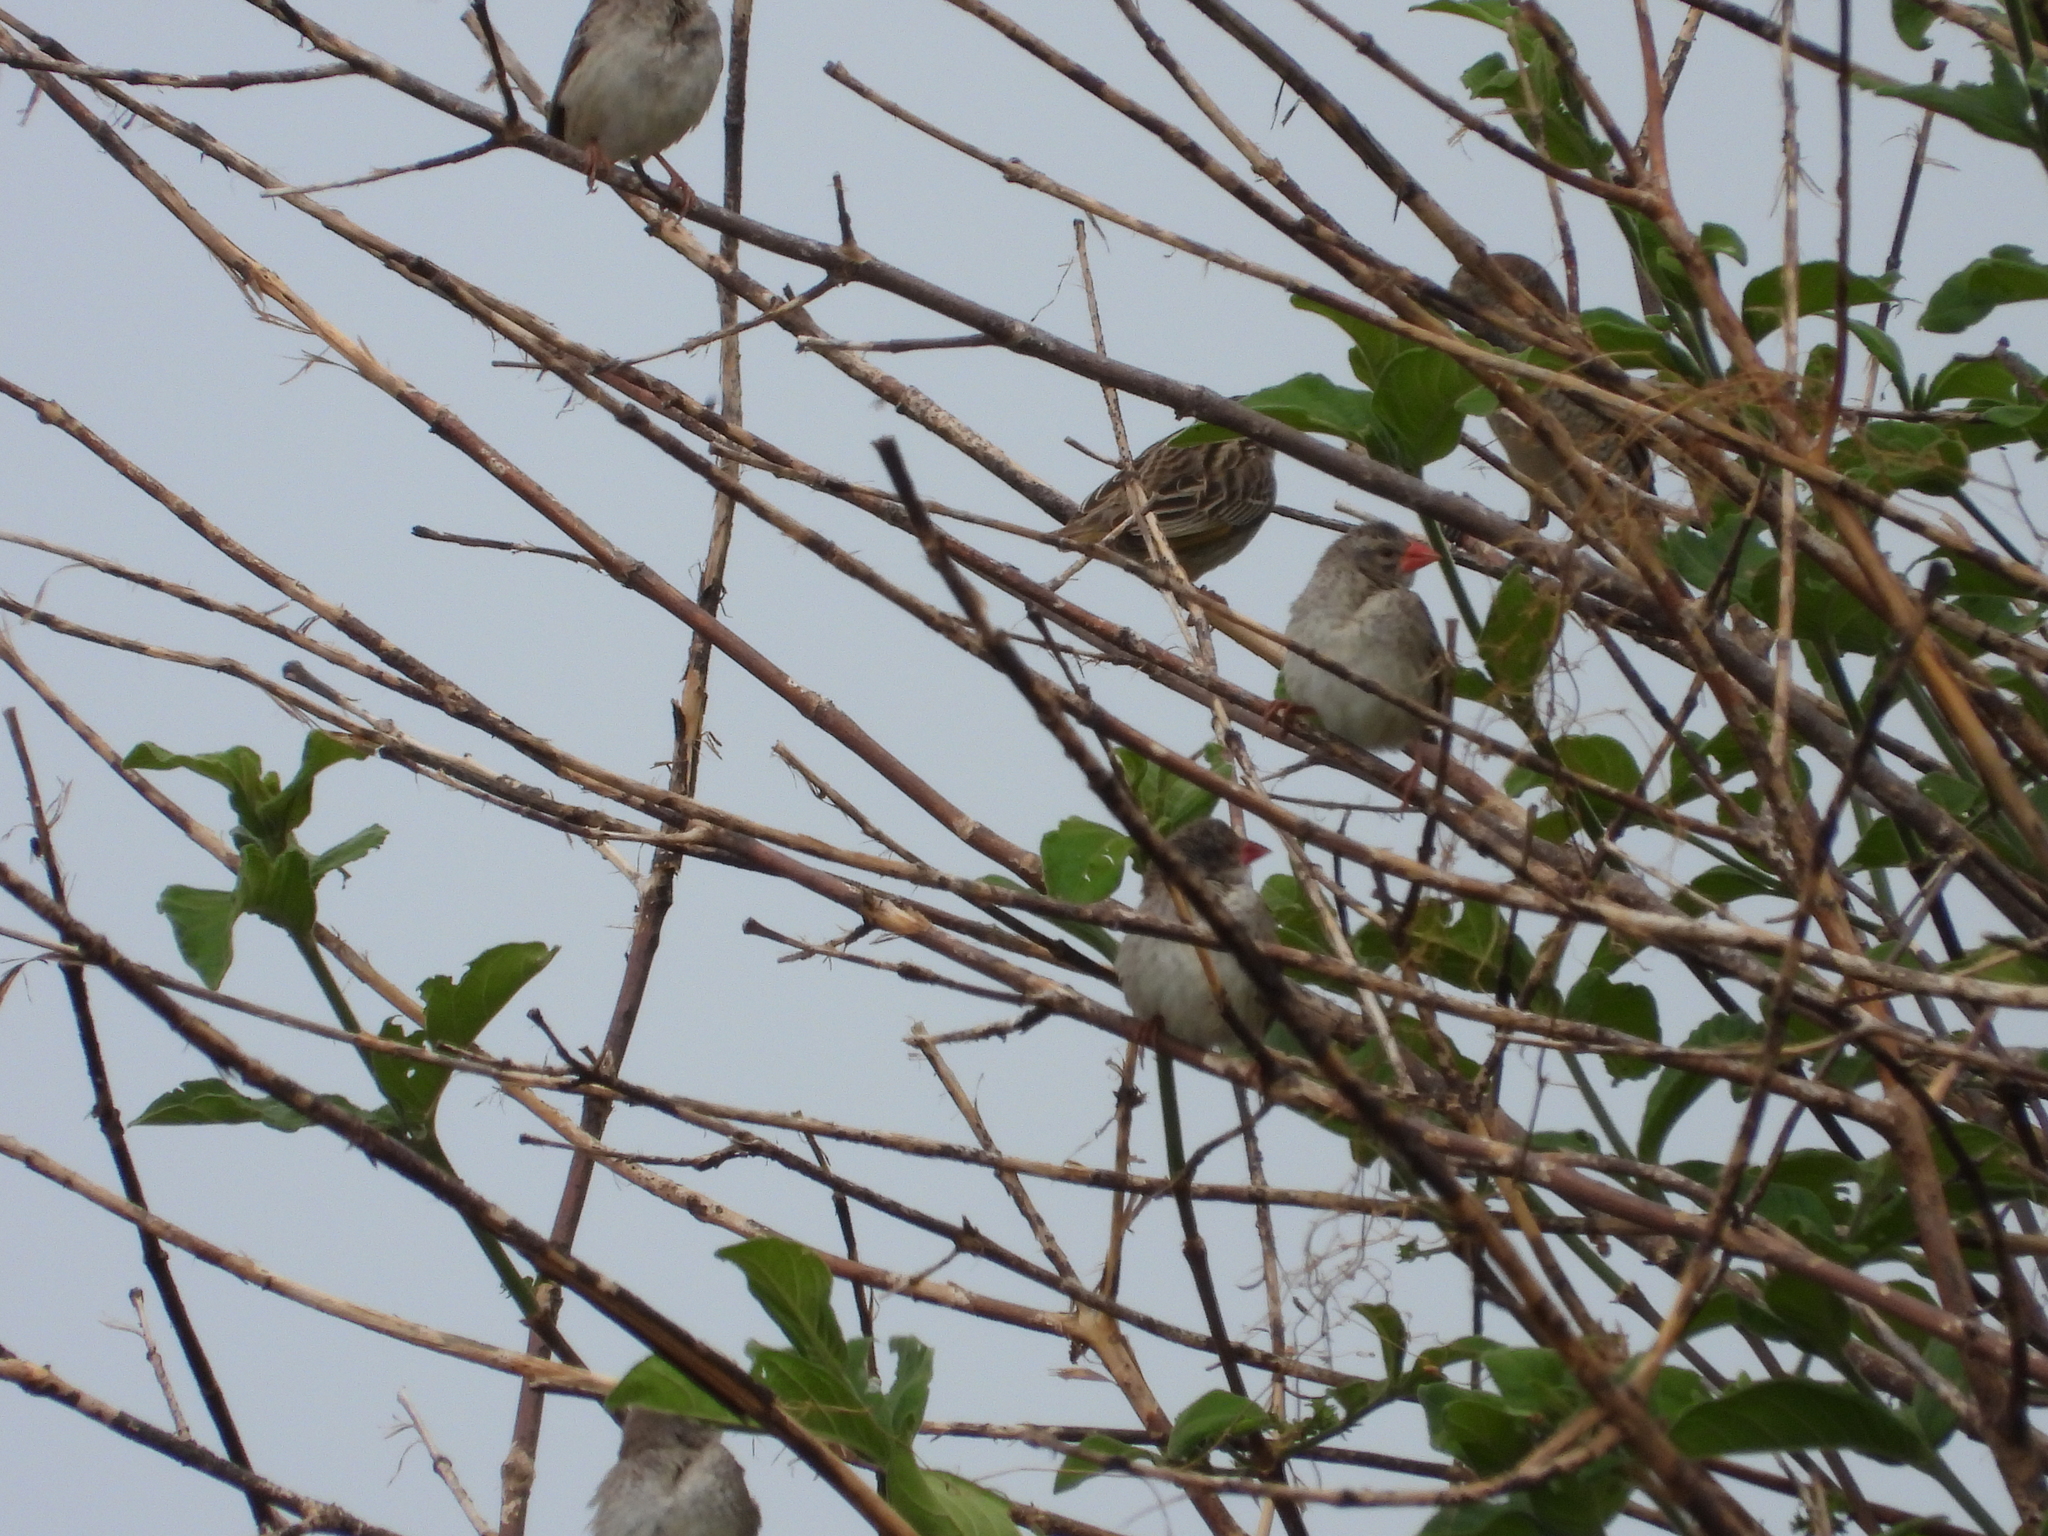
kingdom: Animalia
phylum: Chordata
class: Aves
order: Passeriformes
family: Ploceidae
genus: Quelea
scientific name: Quelea quelea
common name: Red-billed quelea
